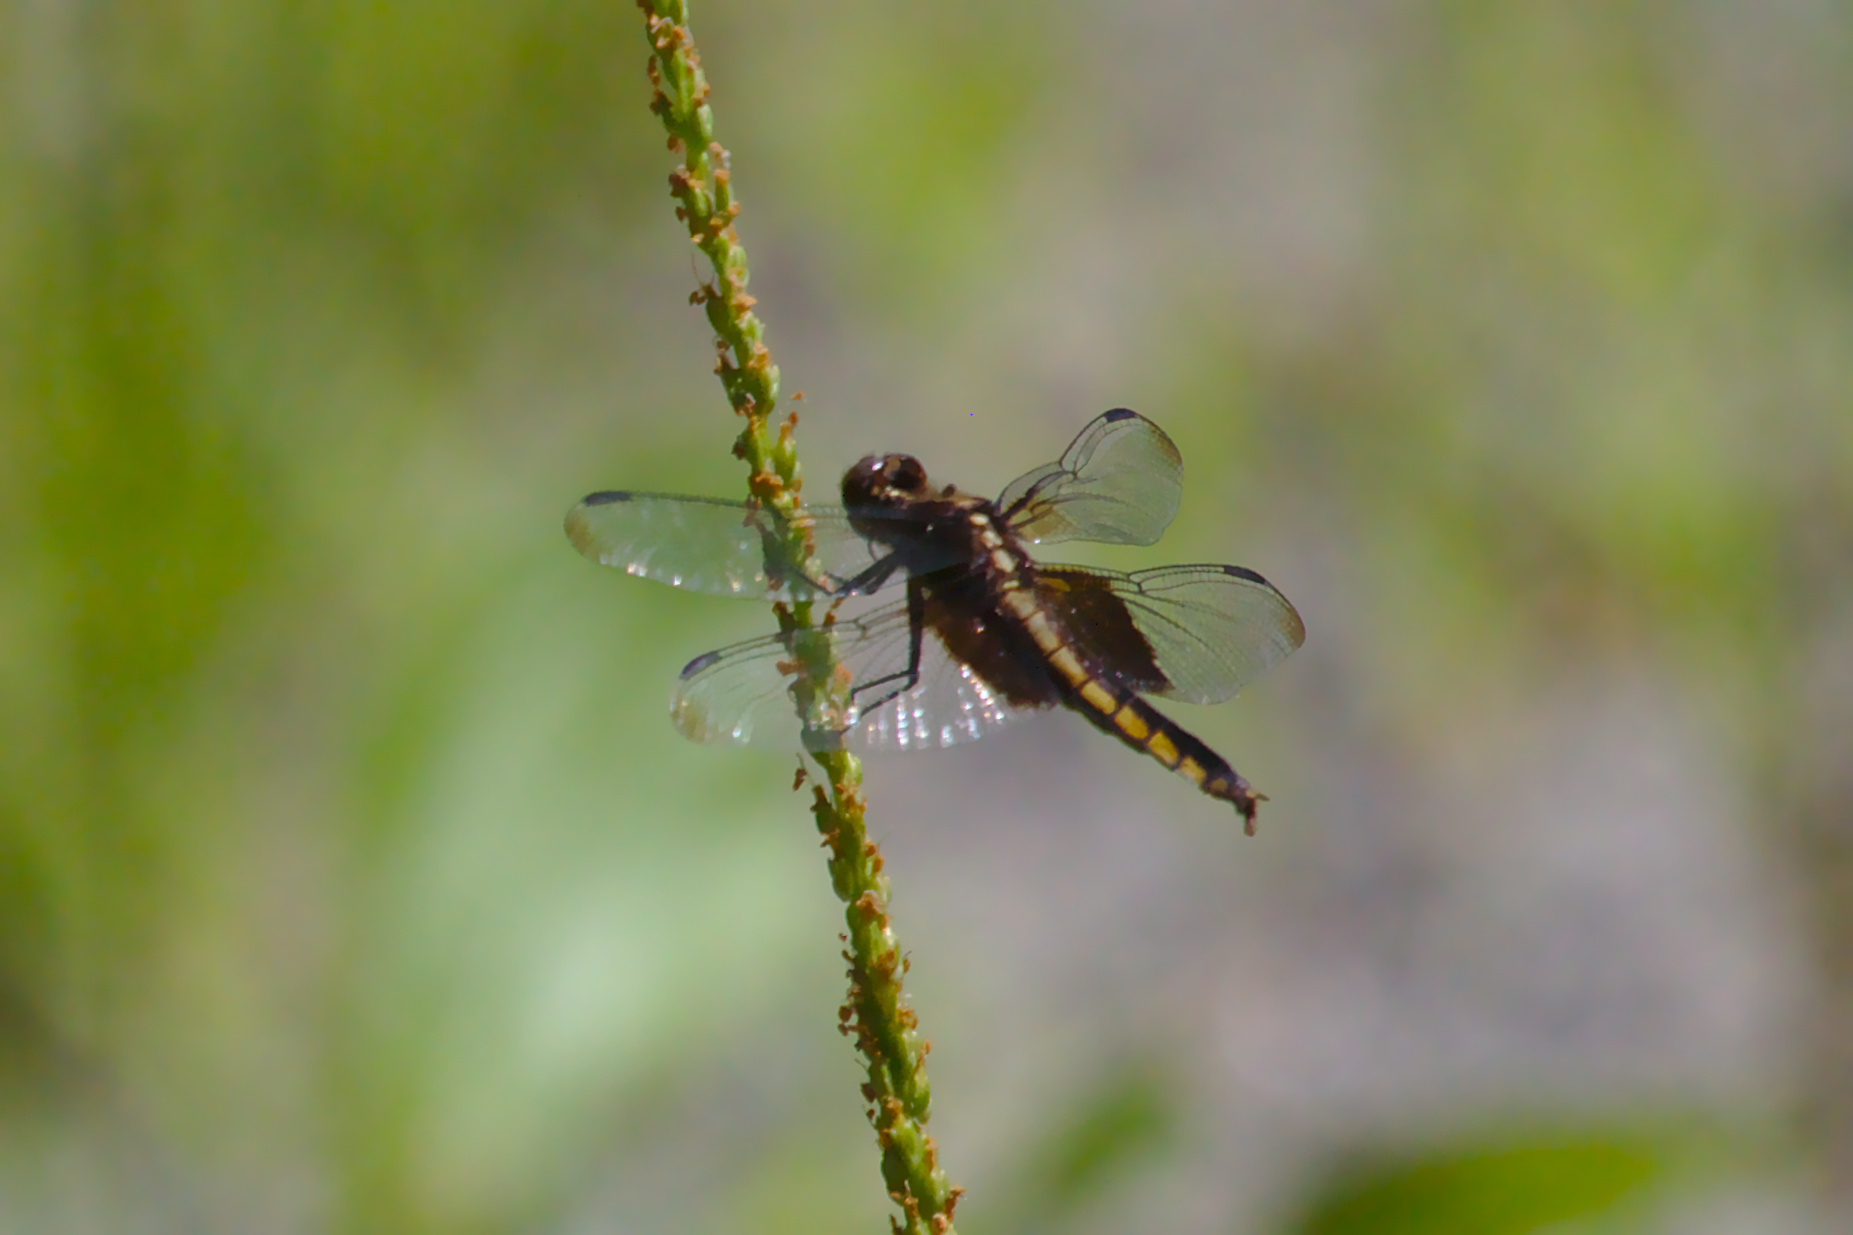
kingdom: Animalia
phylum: Arthropoda
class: Insecta
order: Odonata
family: Libellulidae
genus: Libellula
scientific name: Libellula luctuosa
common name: Widow skimmer
